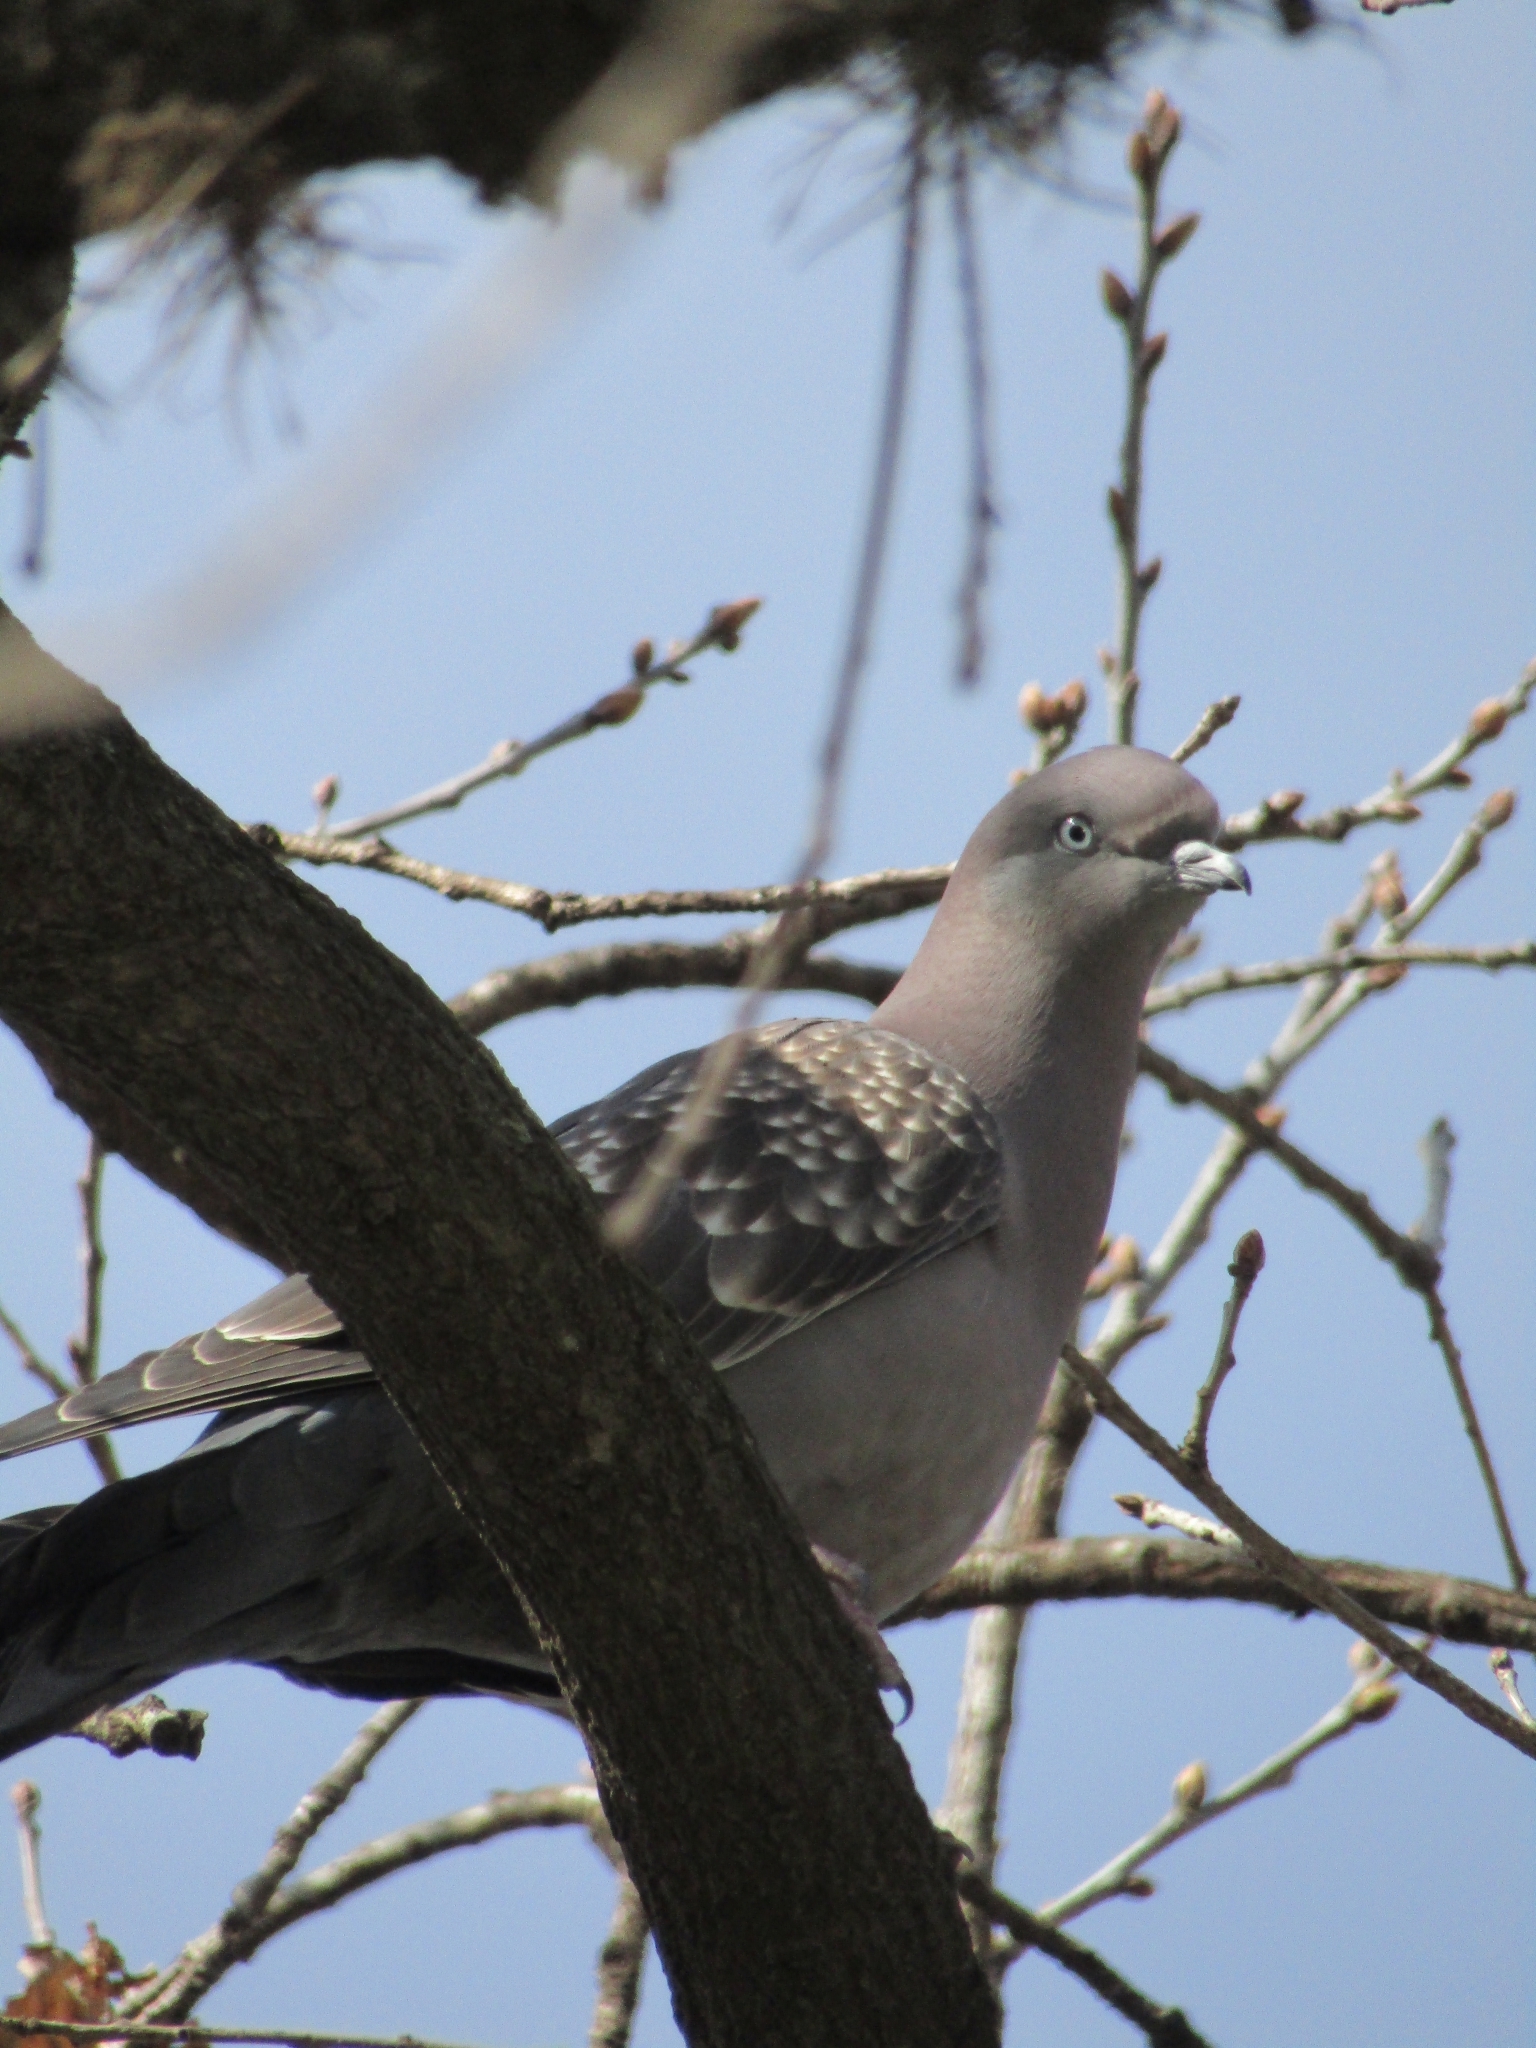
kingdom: Animalia
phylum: Chordata
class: Aves
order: Columbiformes
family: Columbidae
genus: Patagioenas
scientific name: Patagioenas maculosa
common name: Spot-winged pigeon
